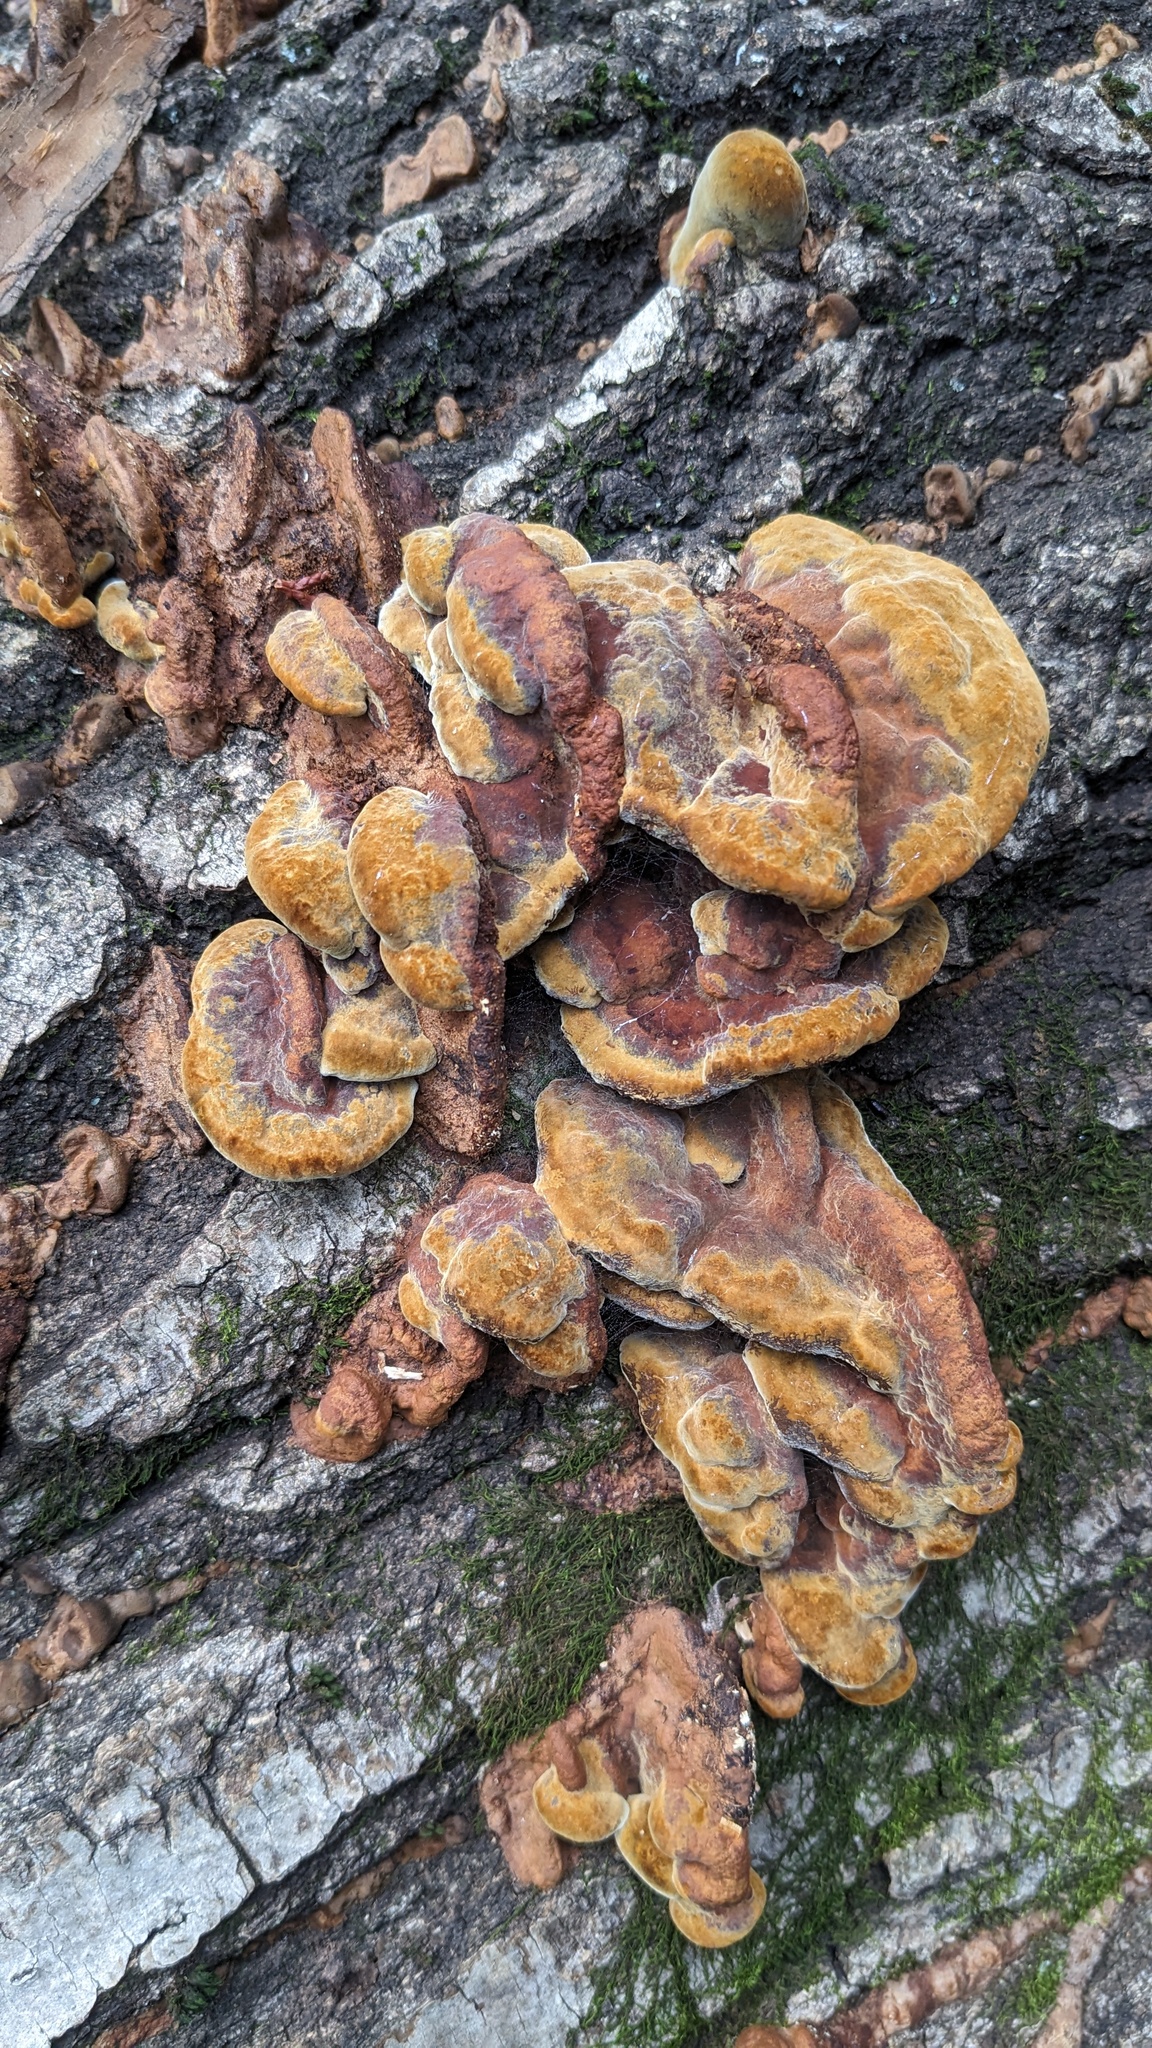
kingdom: Fungi
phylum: Basidiomycota
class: Agaricomycetes
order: Hymenochaetales
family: Hymenochaetaceae
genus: Phellinus
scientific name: Phellinus gilvus
